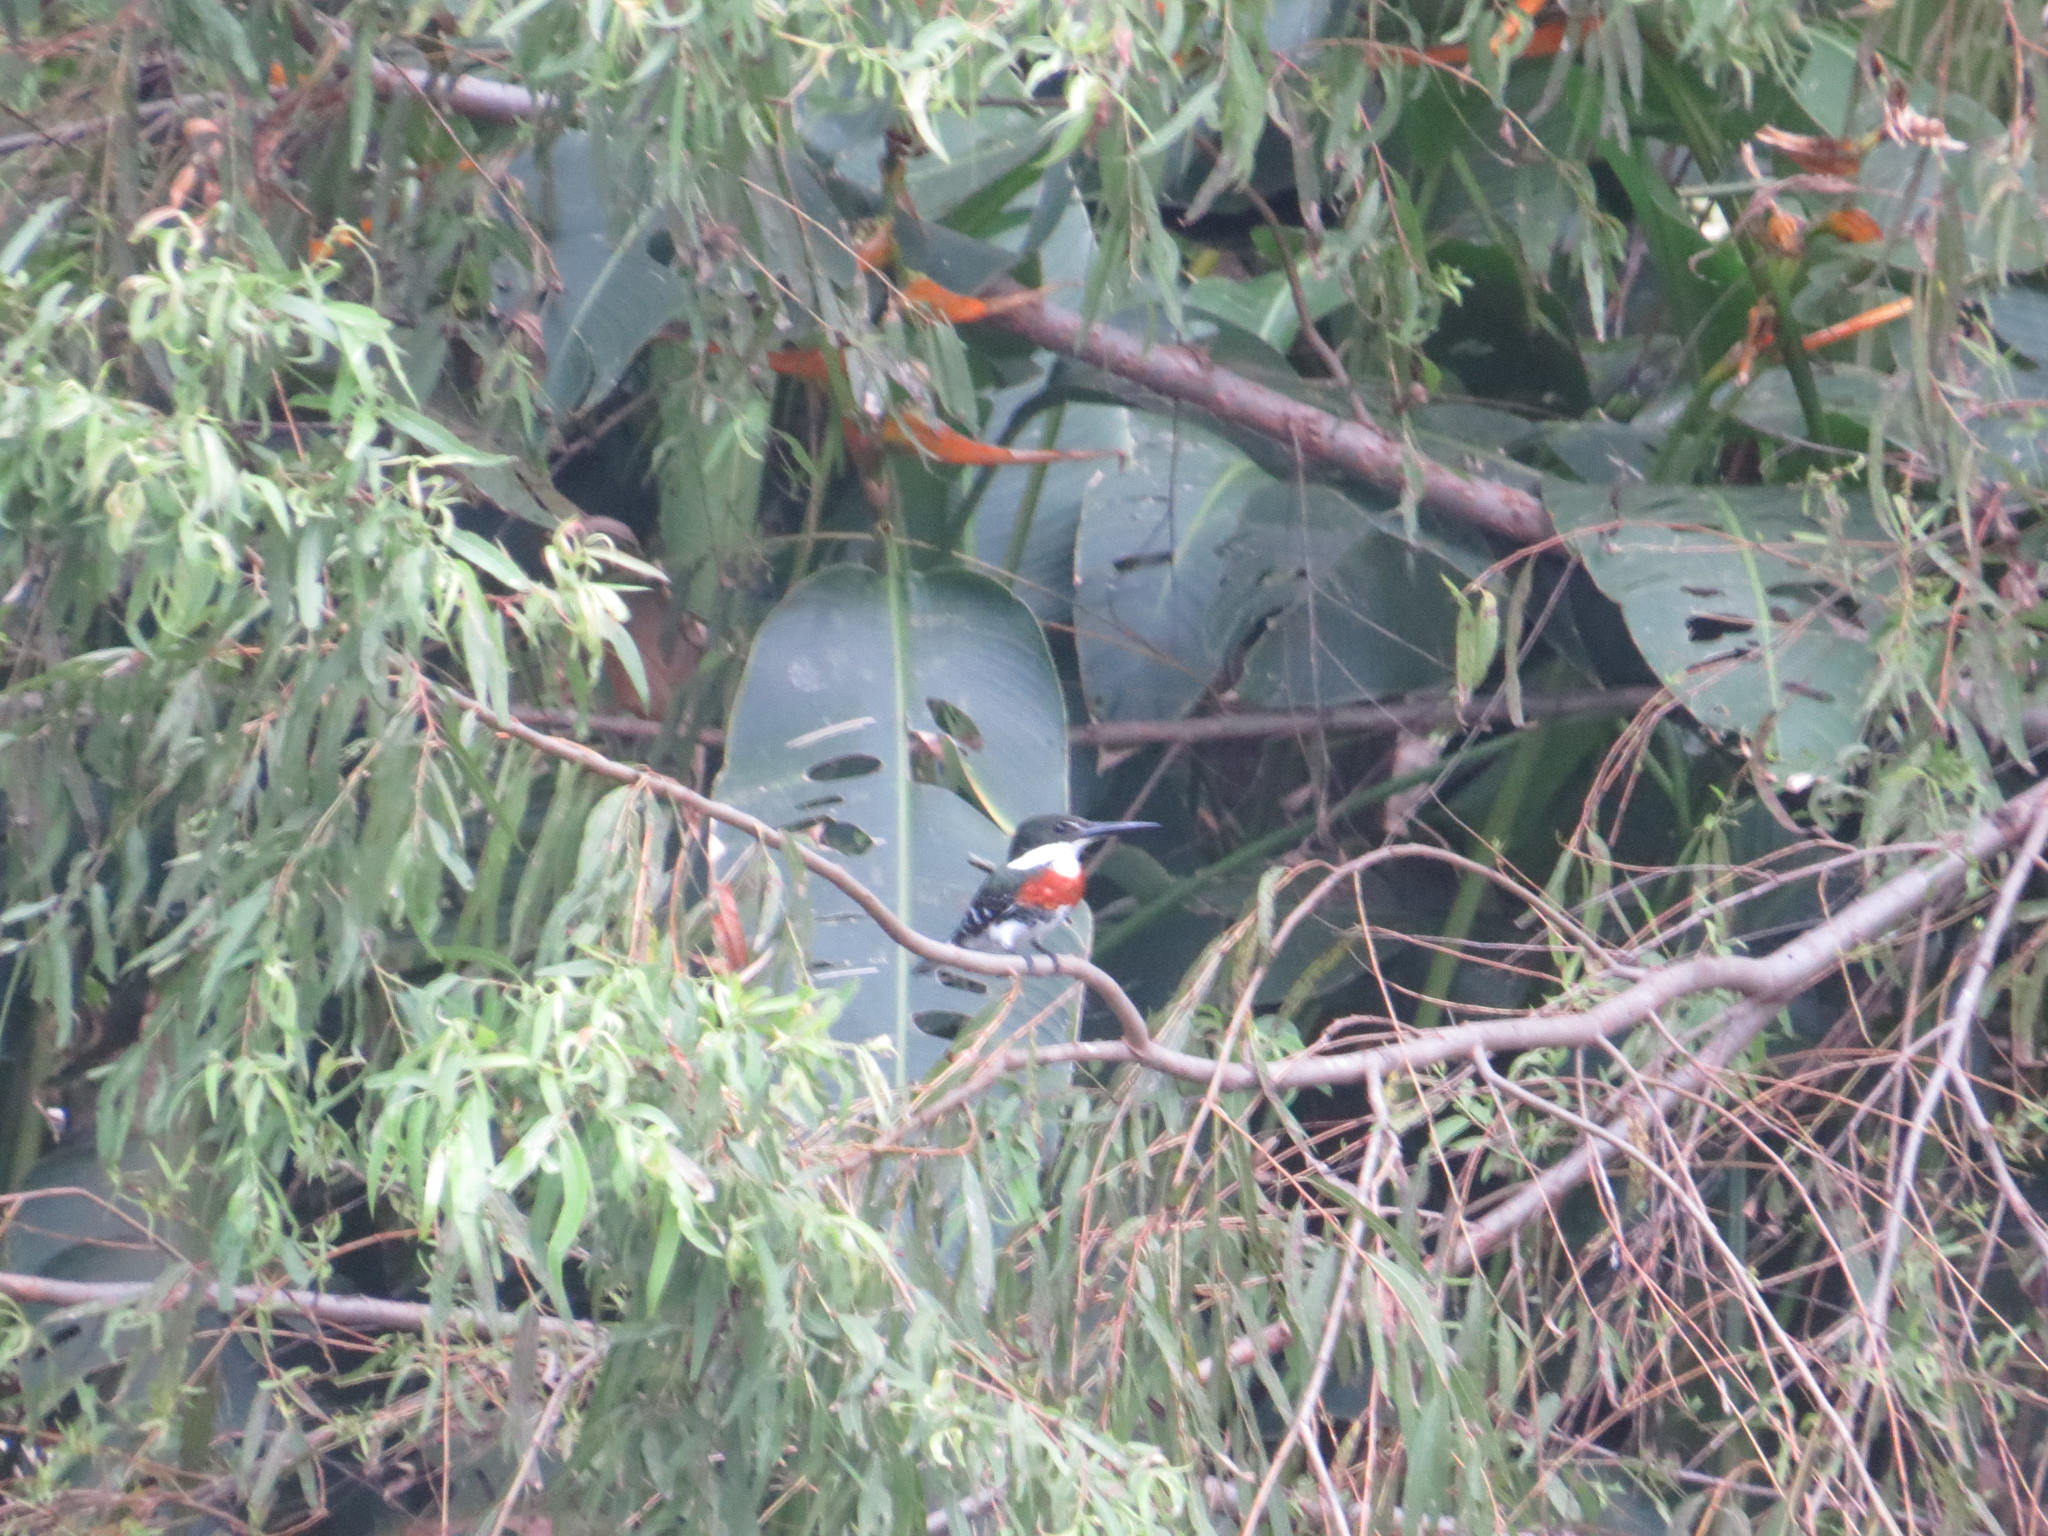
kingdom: Animalia
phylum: Chordata
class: Aves
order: Coraciiformes
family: Alcedinidae
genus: Chloroceryle
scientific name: Chloroceryle americana
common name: Green kingfisher
